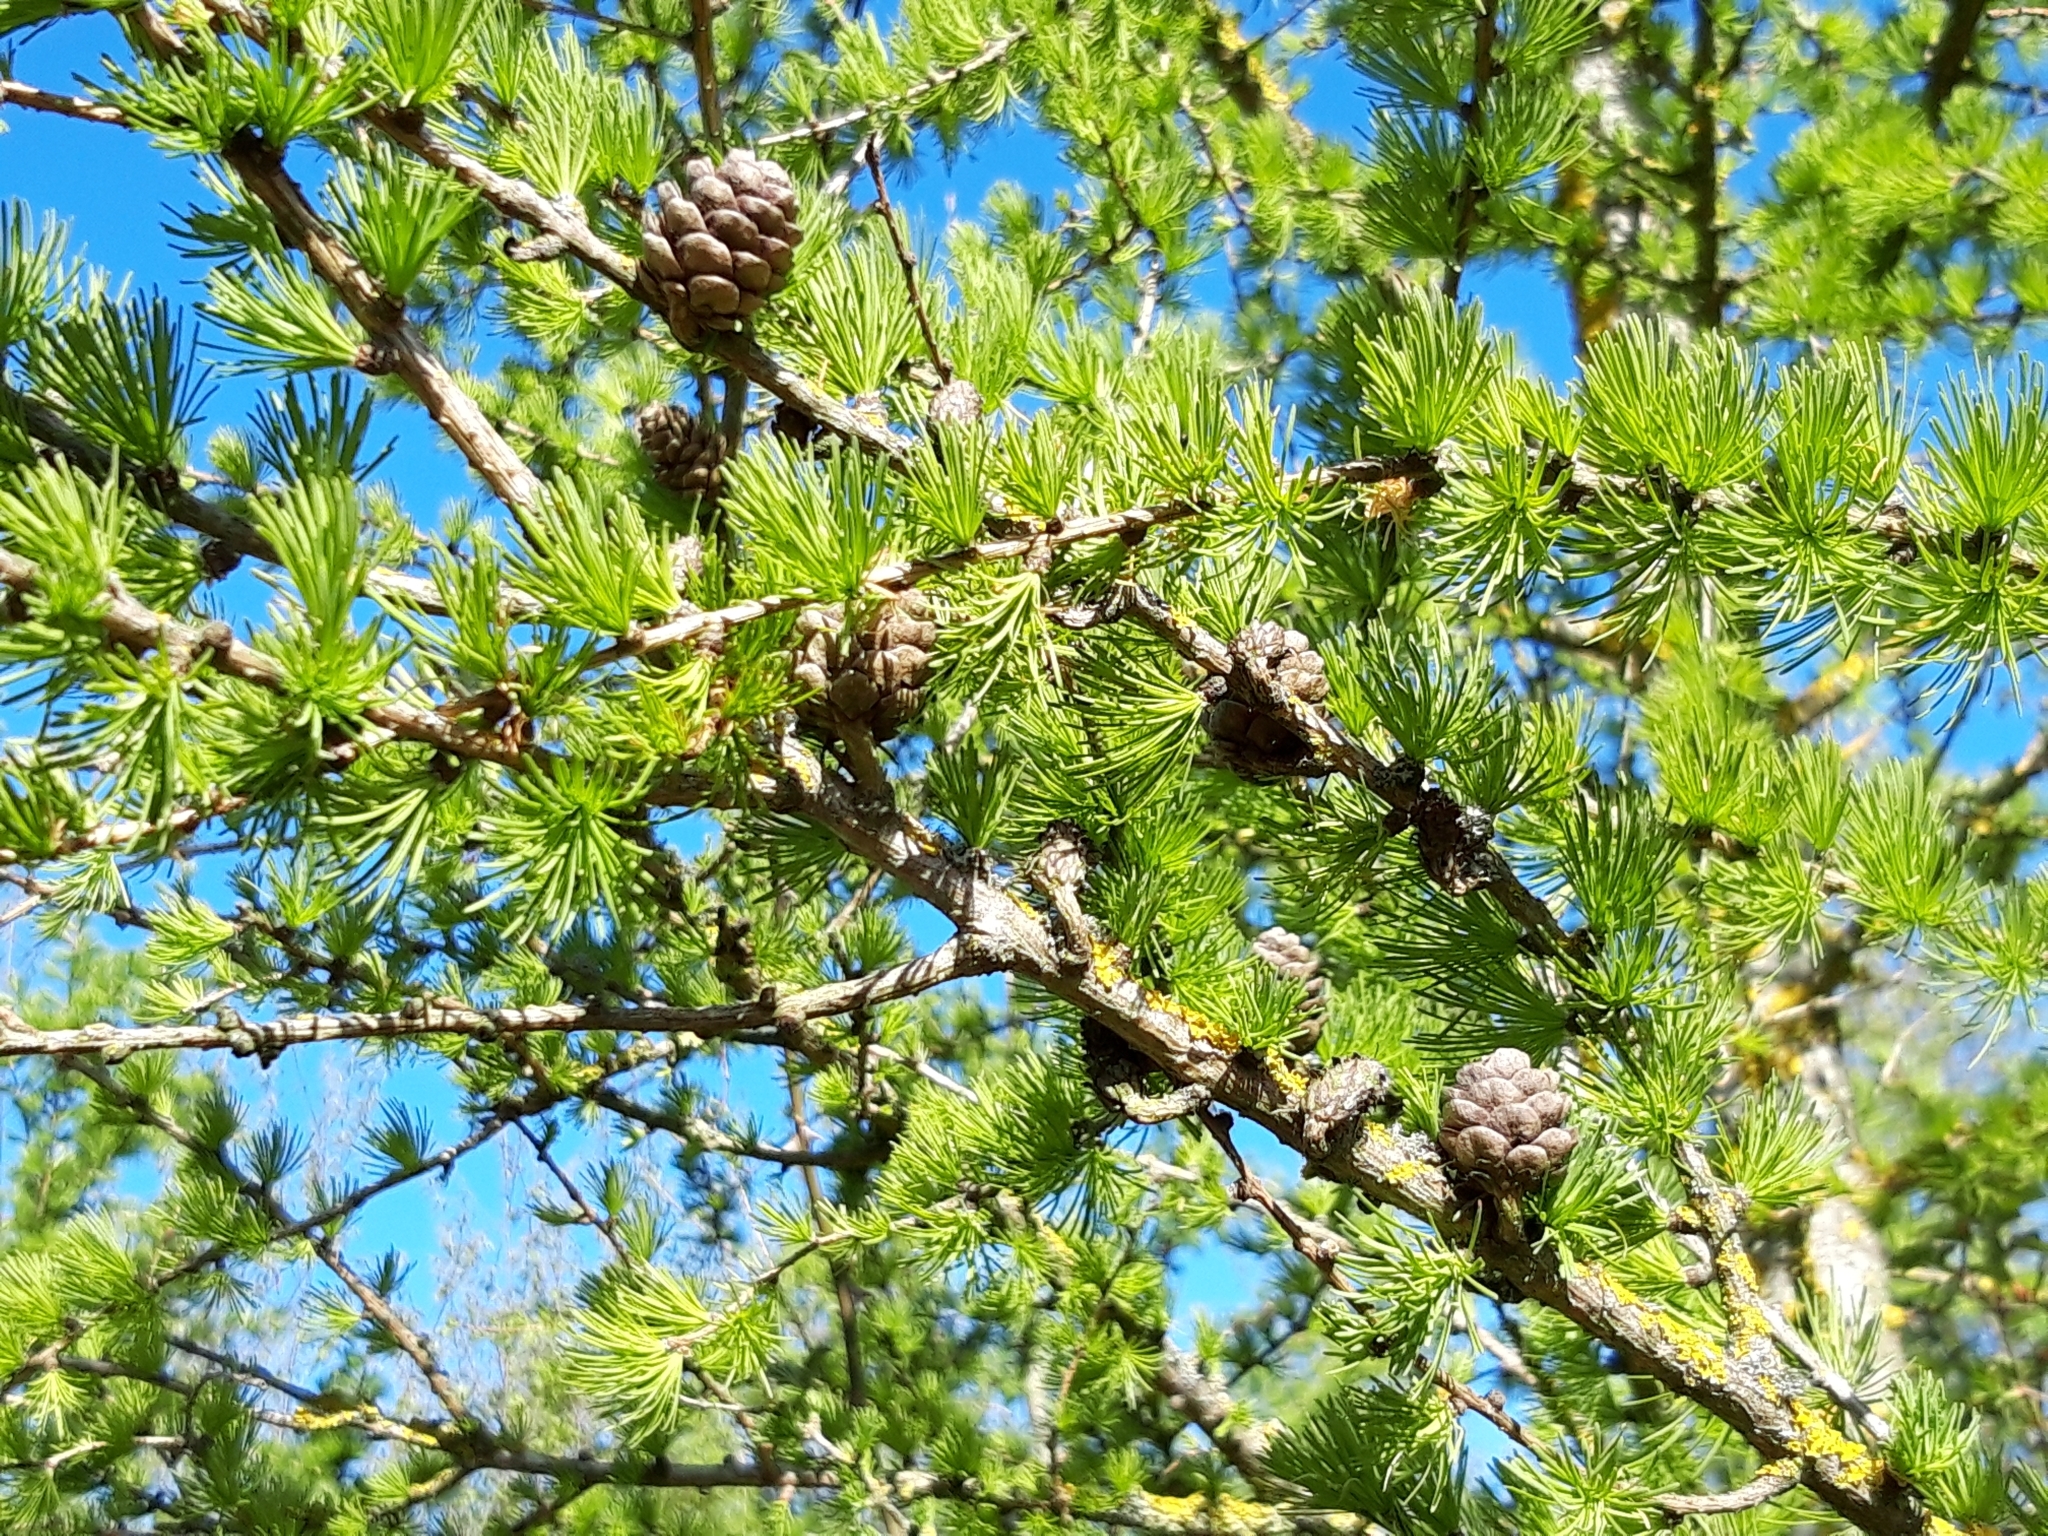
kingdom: Plantae
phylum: Tracheophyta
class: Pinopsida
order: Pinales
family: Pinaceae
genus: Larix
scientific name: Larix decidua
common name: European larch
